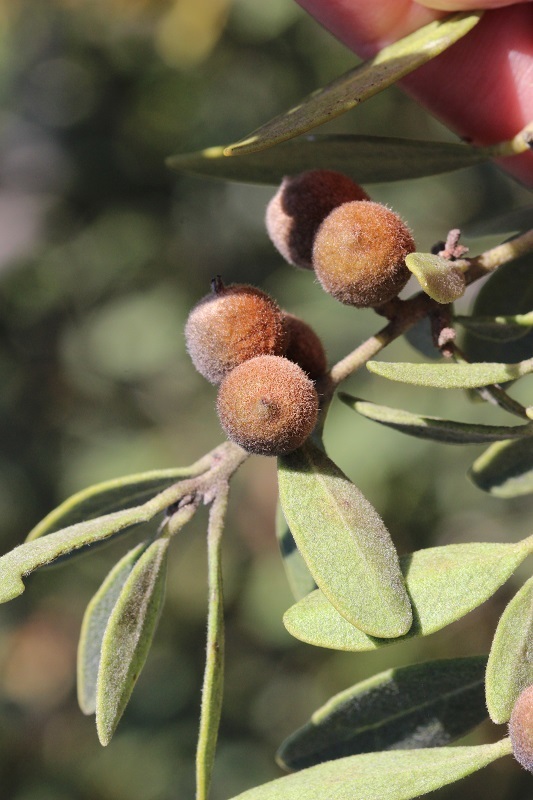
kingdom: Plantae
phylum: Tracheophyta
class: Magnoliopsida
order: Ericales
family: Ebenaceae
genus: Euclea
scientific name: Euclea polyandra
